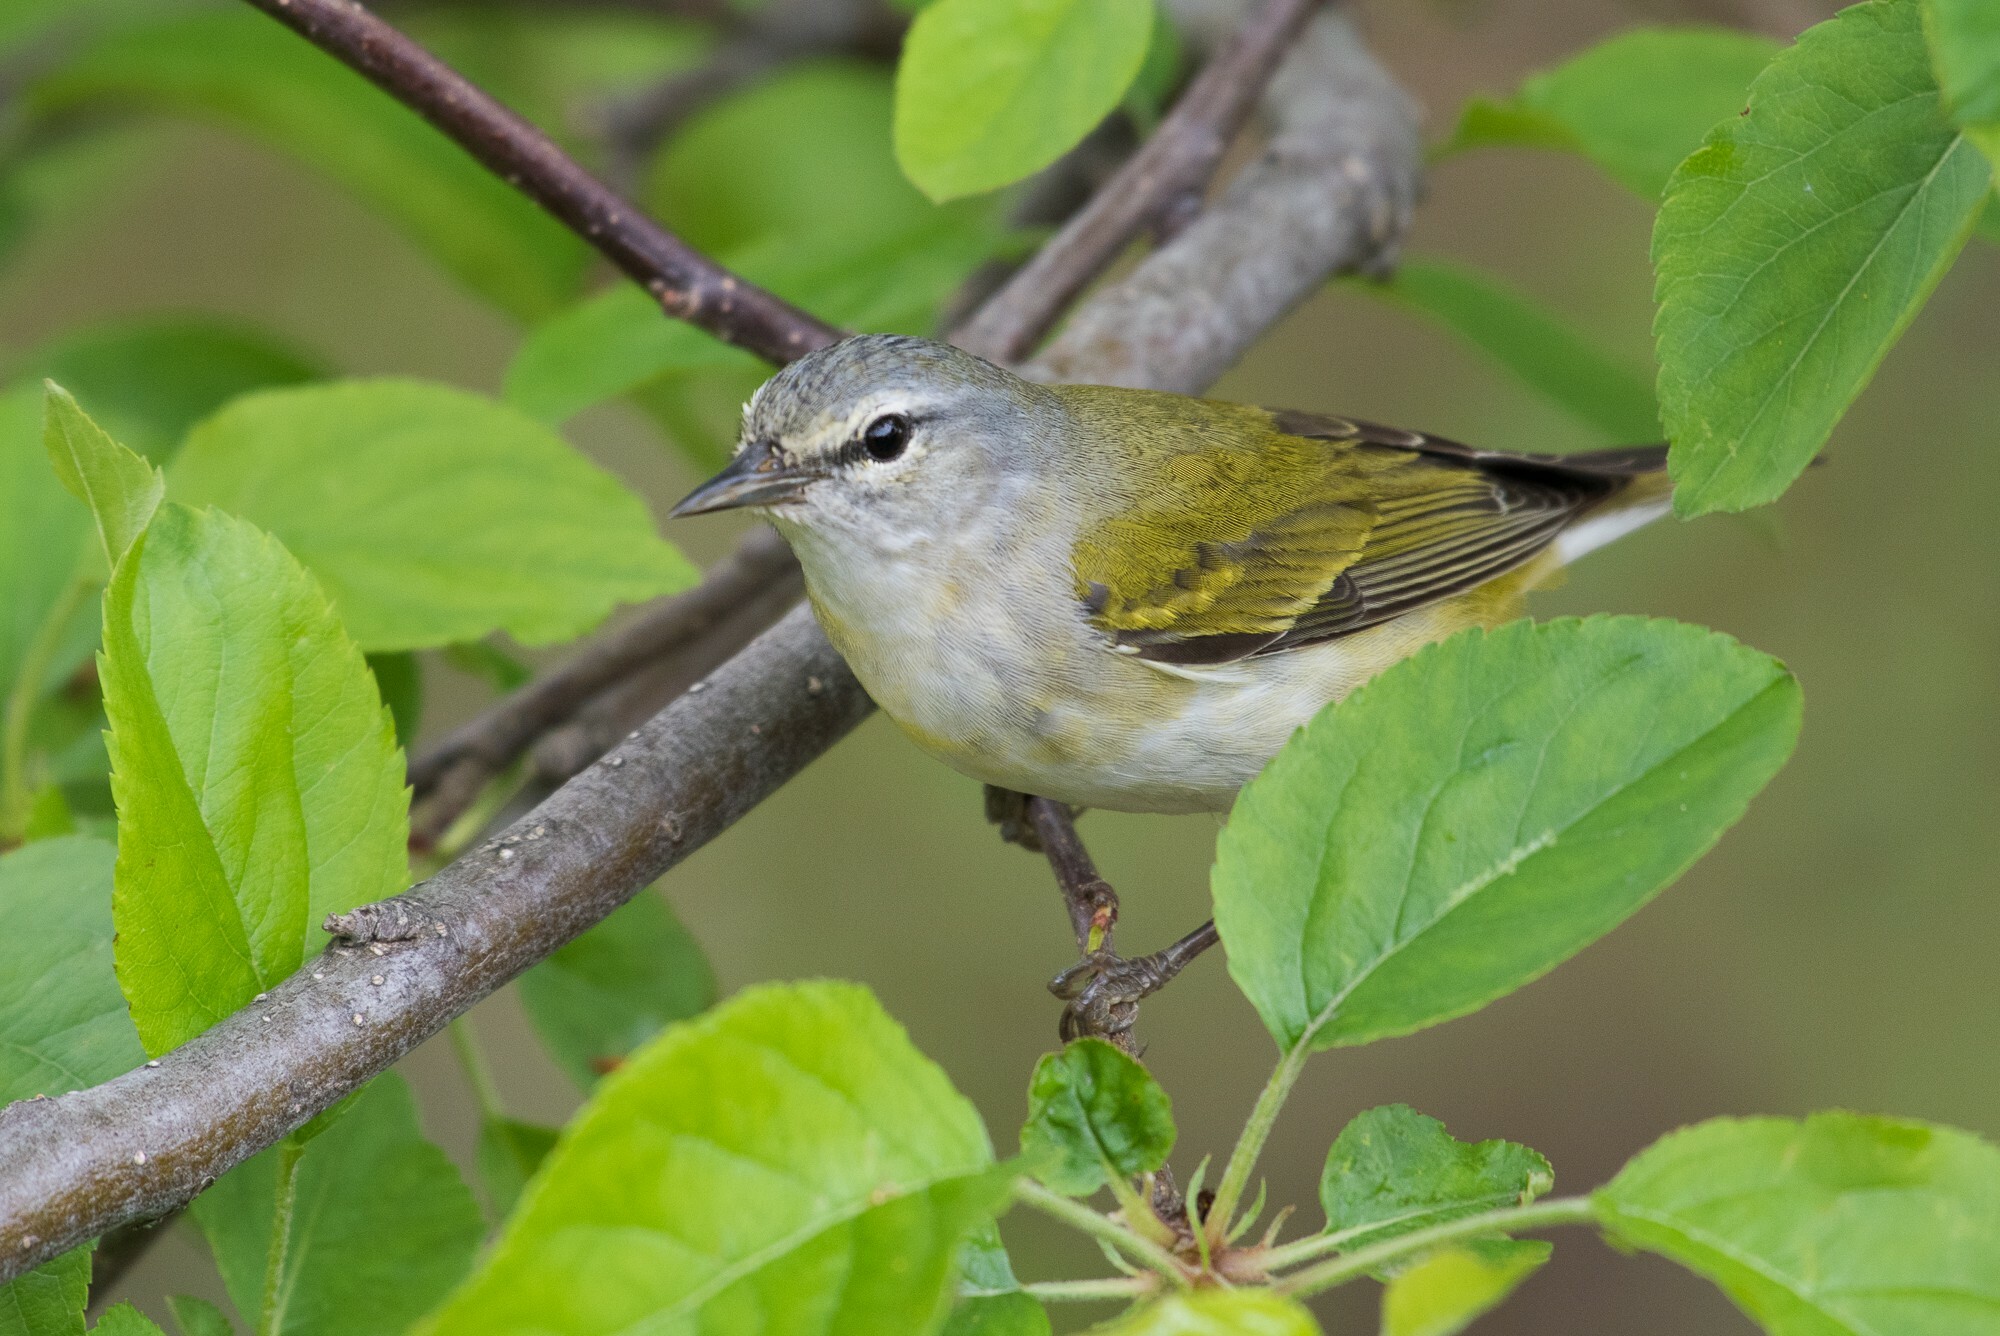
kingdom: Animalia
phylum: Chordata
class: Aves
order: Passeriformes
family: Parulidae
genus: Leiothlypis
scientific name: Leiothlypis peregrina
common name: Tennessee warbler
